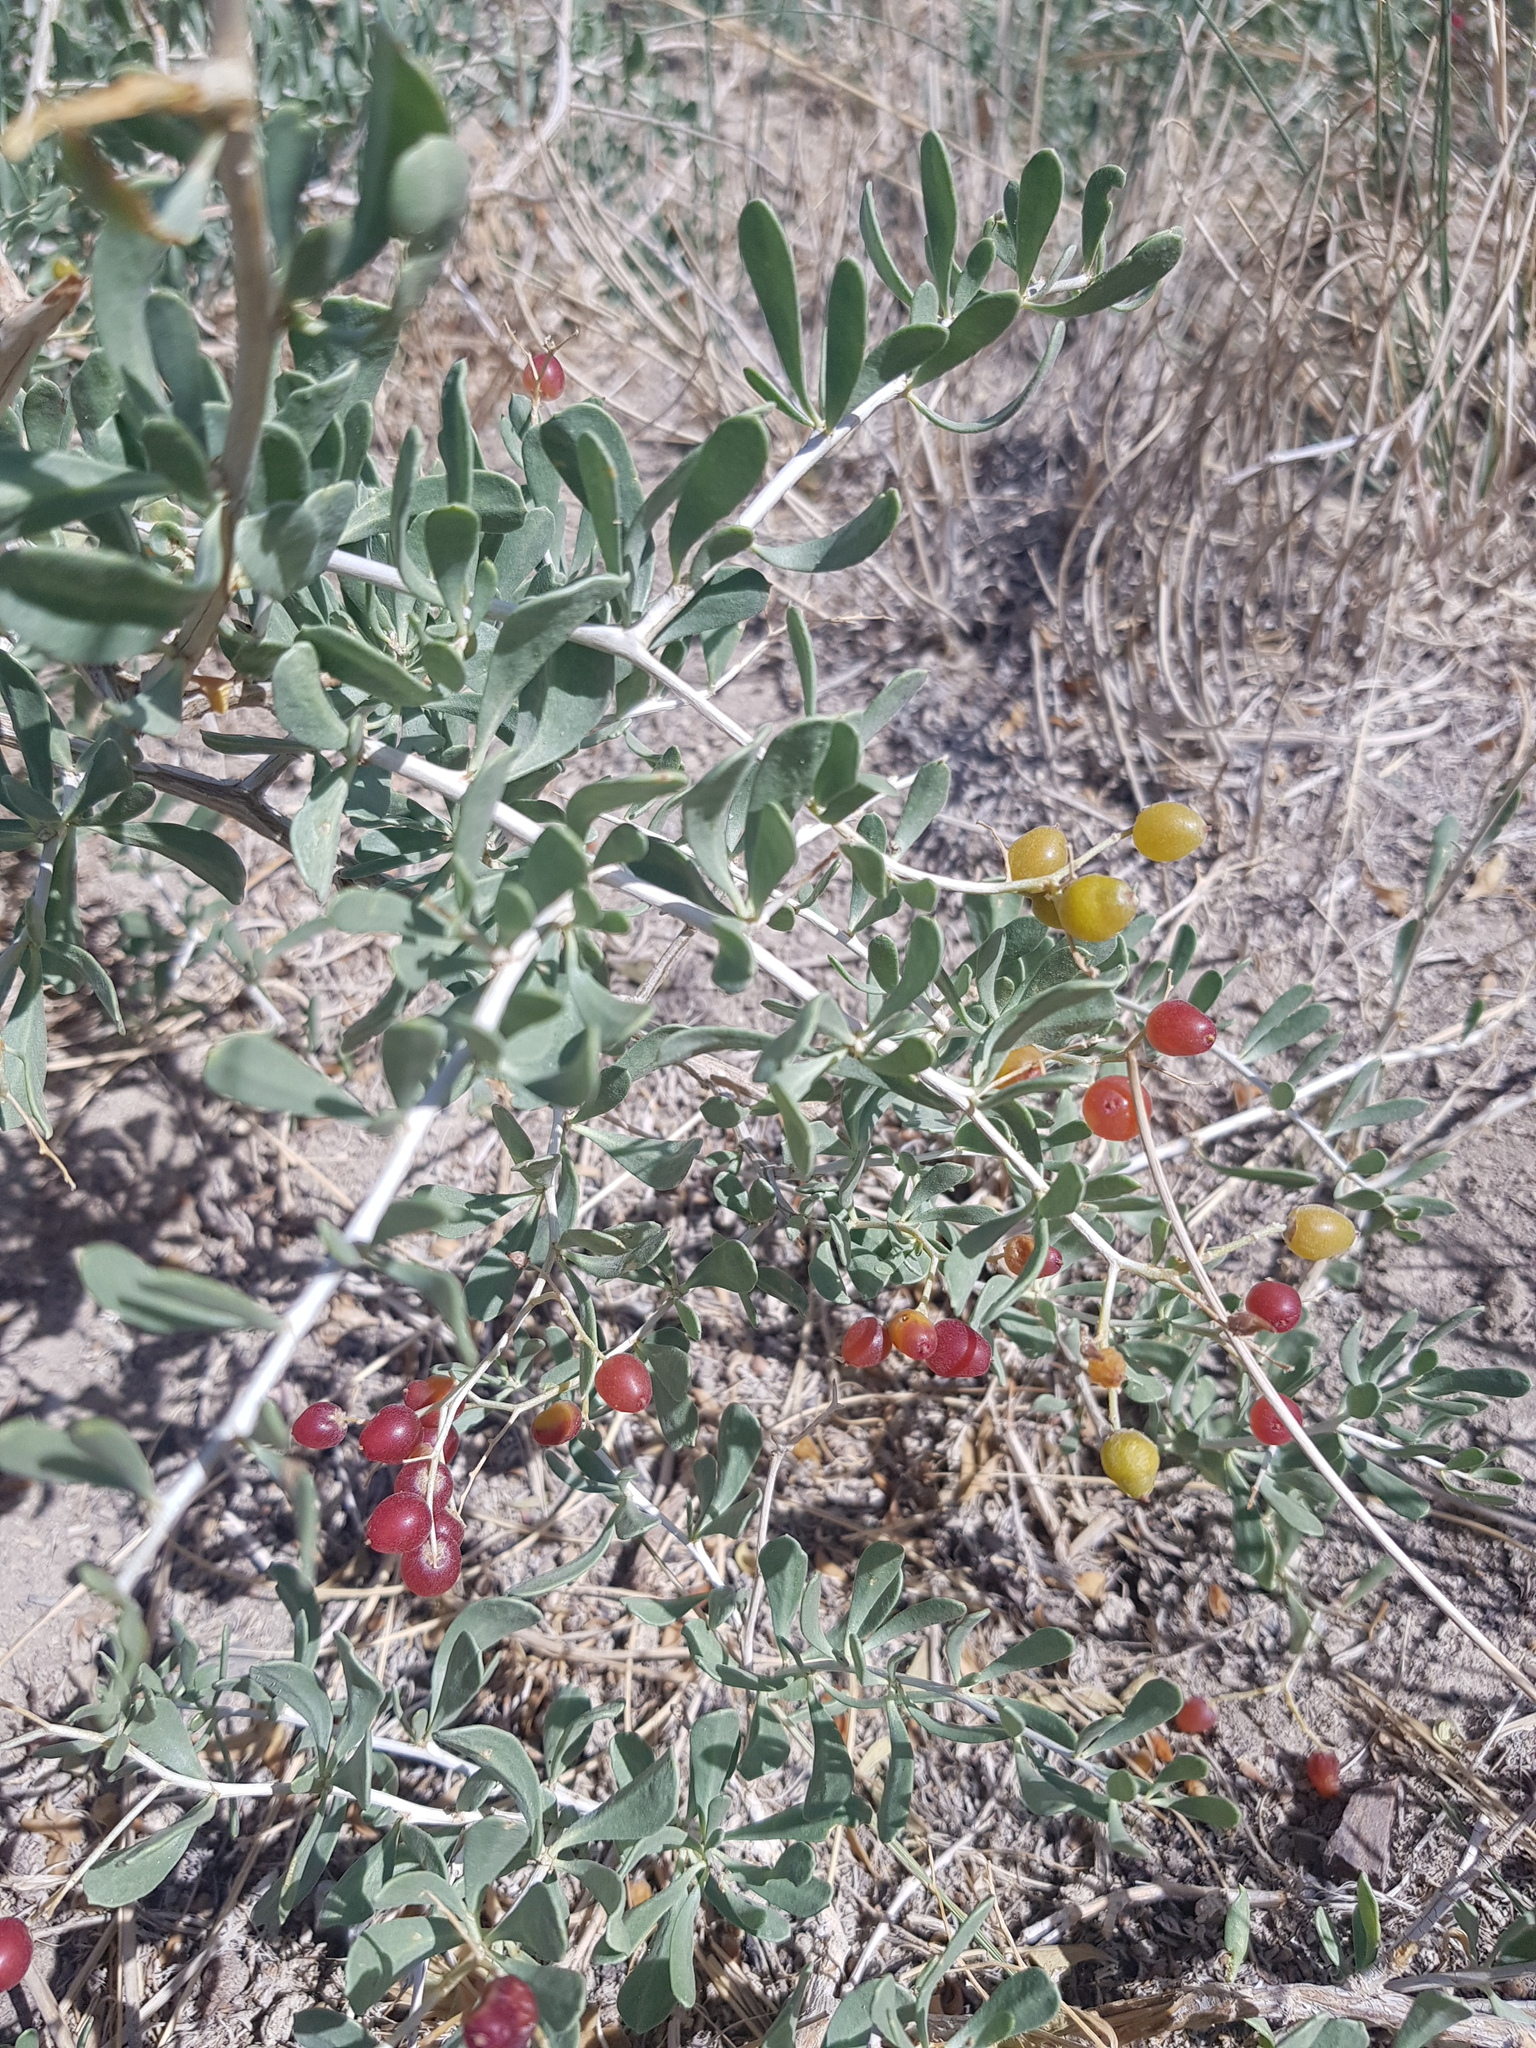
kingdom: Plantae
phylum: Tracheophyta
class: Magnoliopsida
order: Sapindales
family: Nitrariaceae
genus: Nitraria
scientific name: Nitraria sibirica
